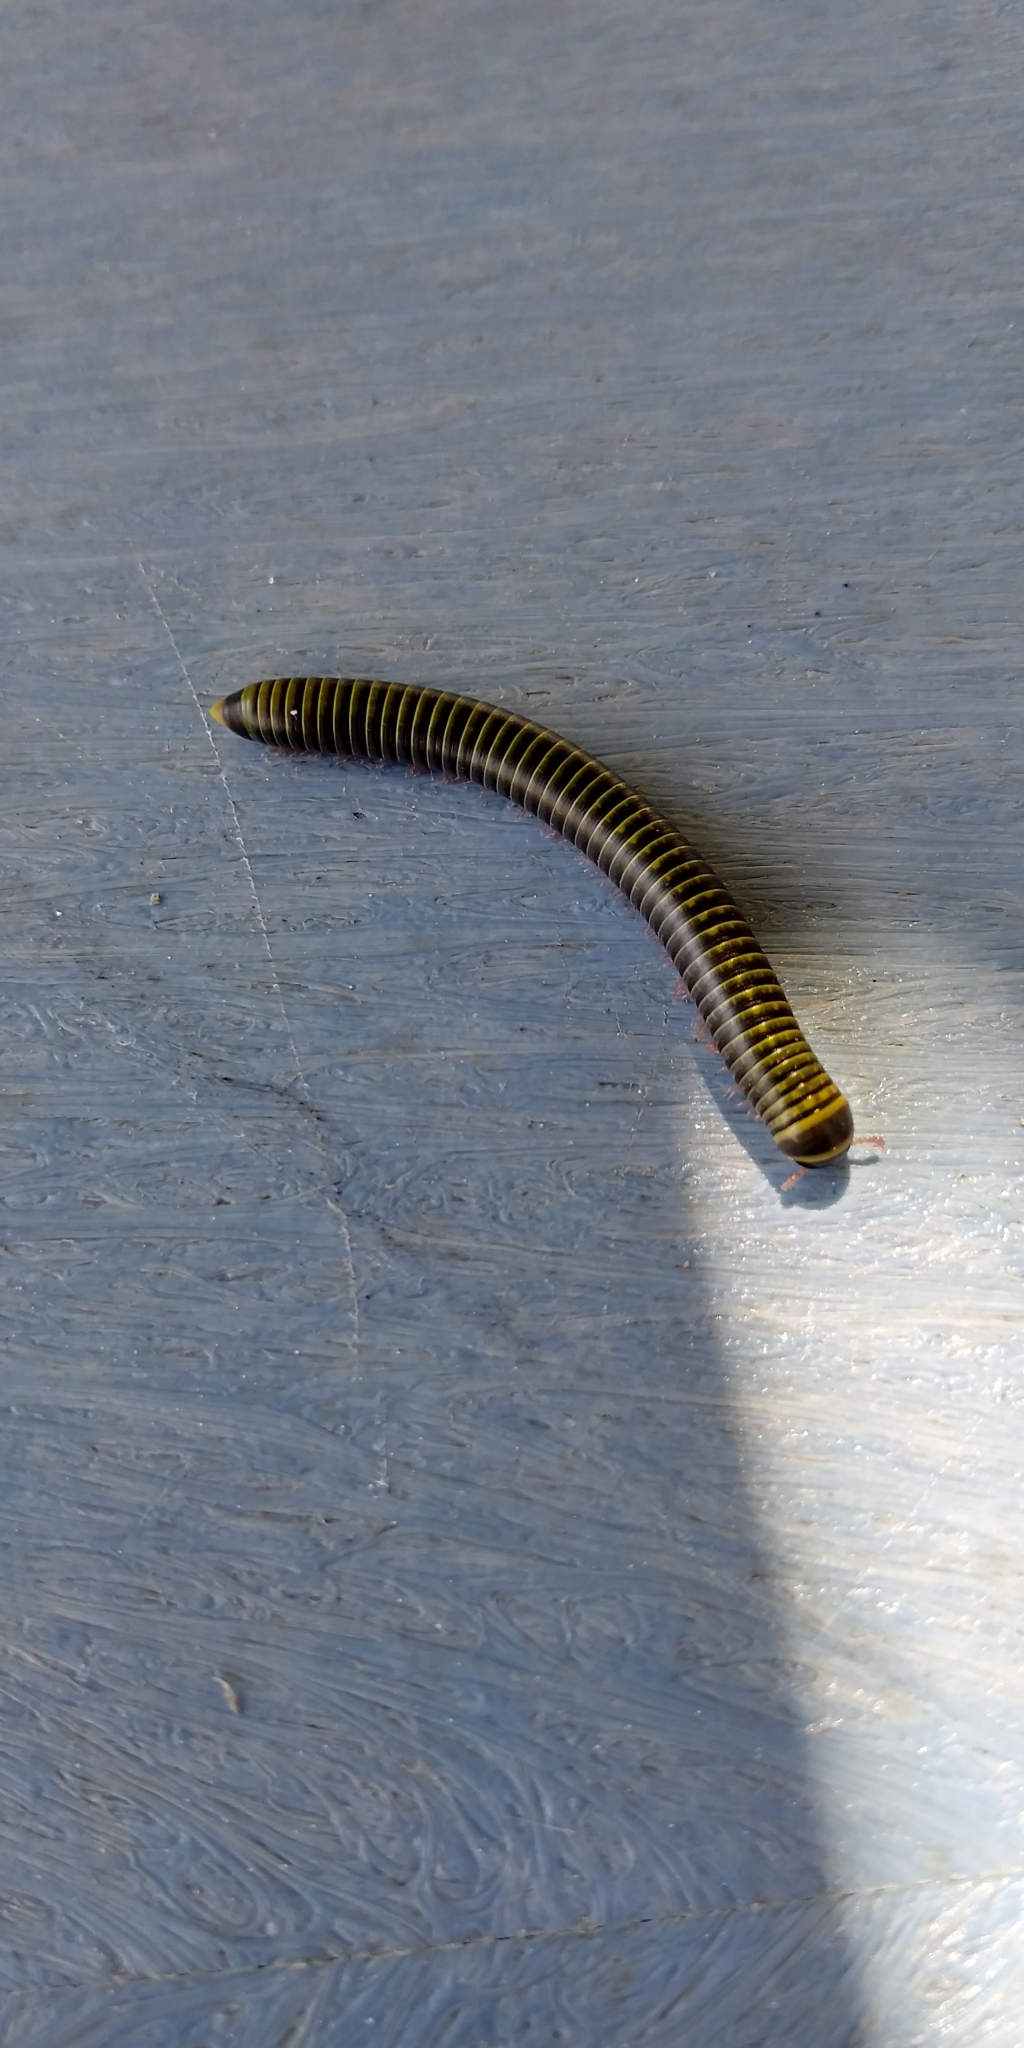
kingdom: Animalia
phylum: Arthropoda
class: Diplopoda
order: Spirobolida
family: Rhinocricidae
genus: Anadenobolus
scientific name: Anadenobolus monilicornis
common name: Caribbean millipede
